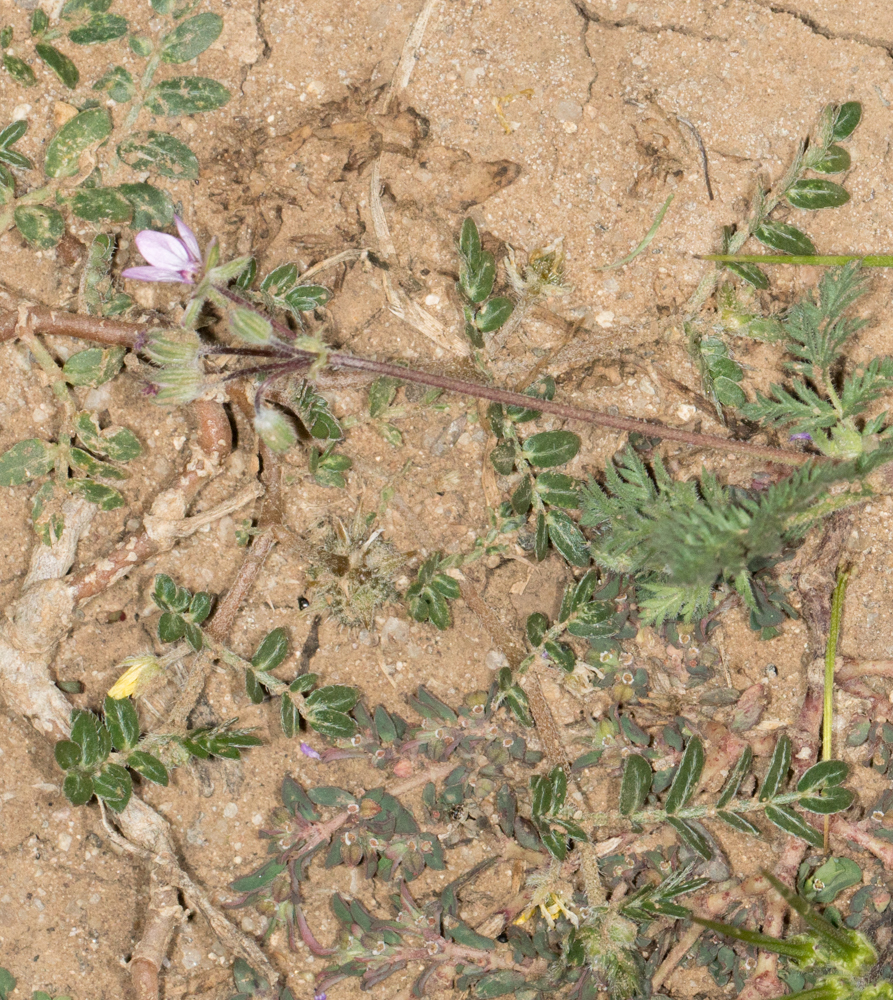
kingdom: Plantae
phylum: Tracheophyta
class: Magnoliopsida
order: Zygophyllales
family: Zygophyllaceae
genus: Tribulus
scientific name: Tribulus terrestris
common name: Puncturevine
